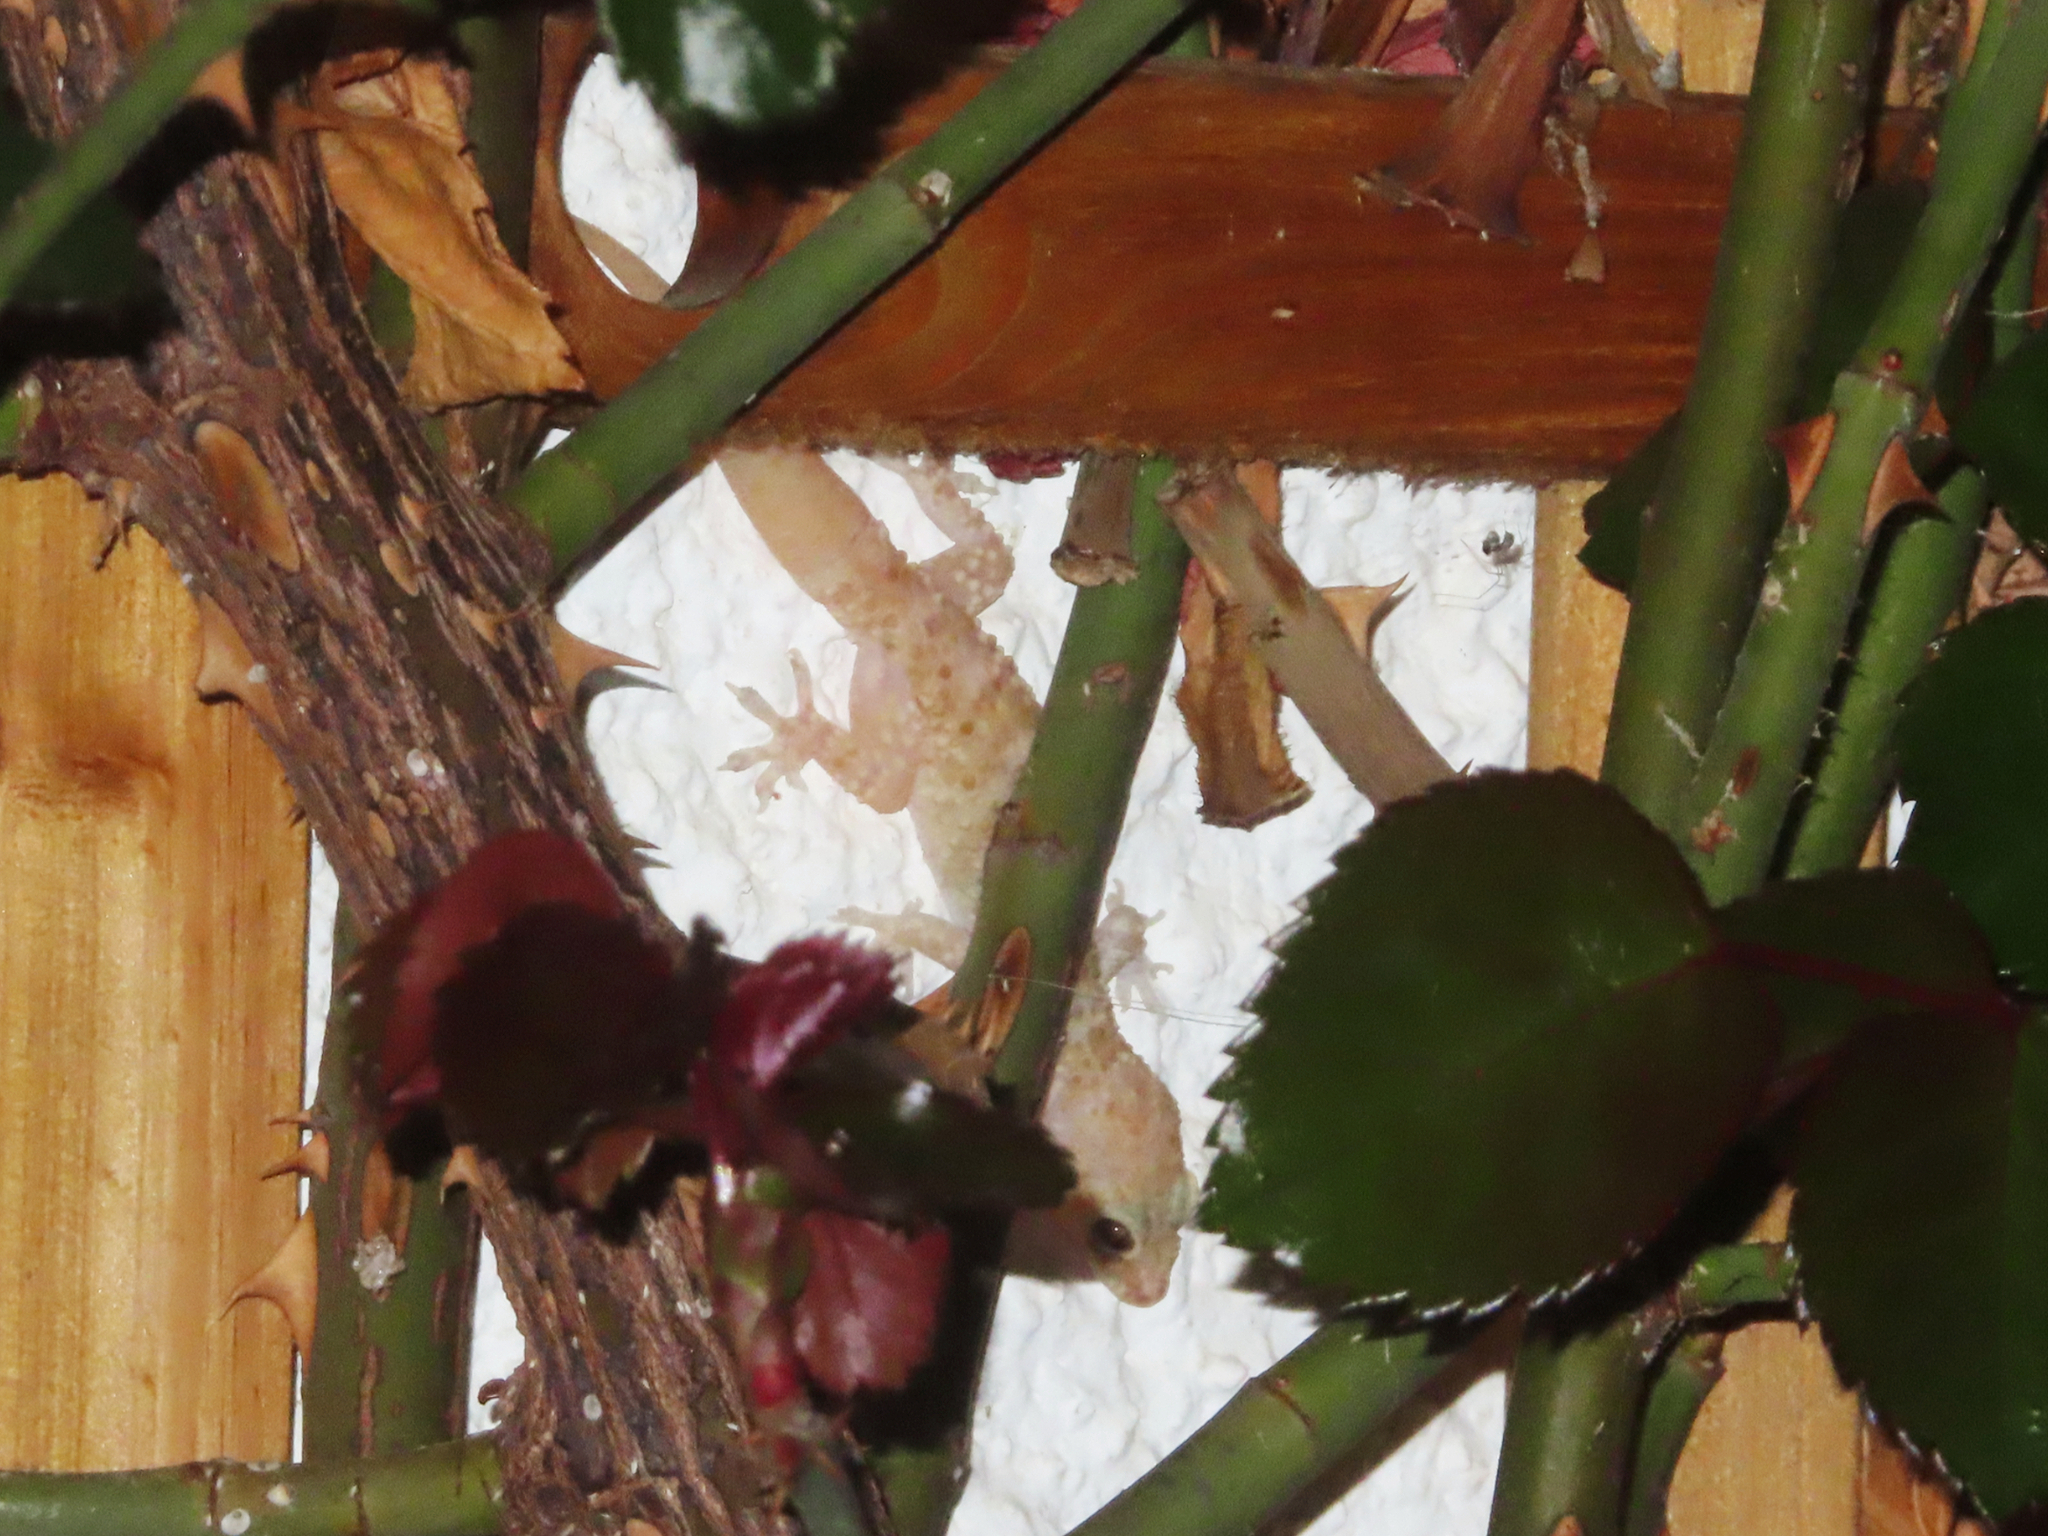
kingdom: Animalia
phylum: Chordata
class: Squamata
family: Gekkonidae
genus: Hemidactylus
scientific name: Hemidactylus turcicus
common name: Turkish gecko
